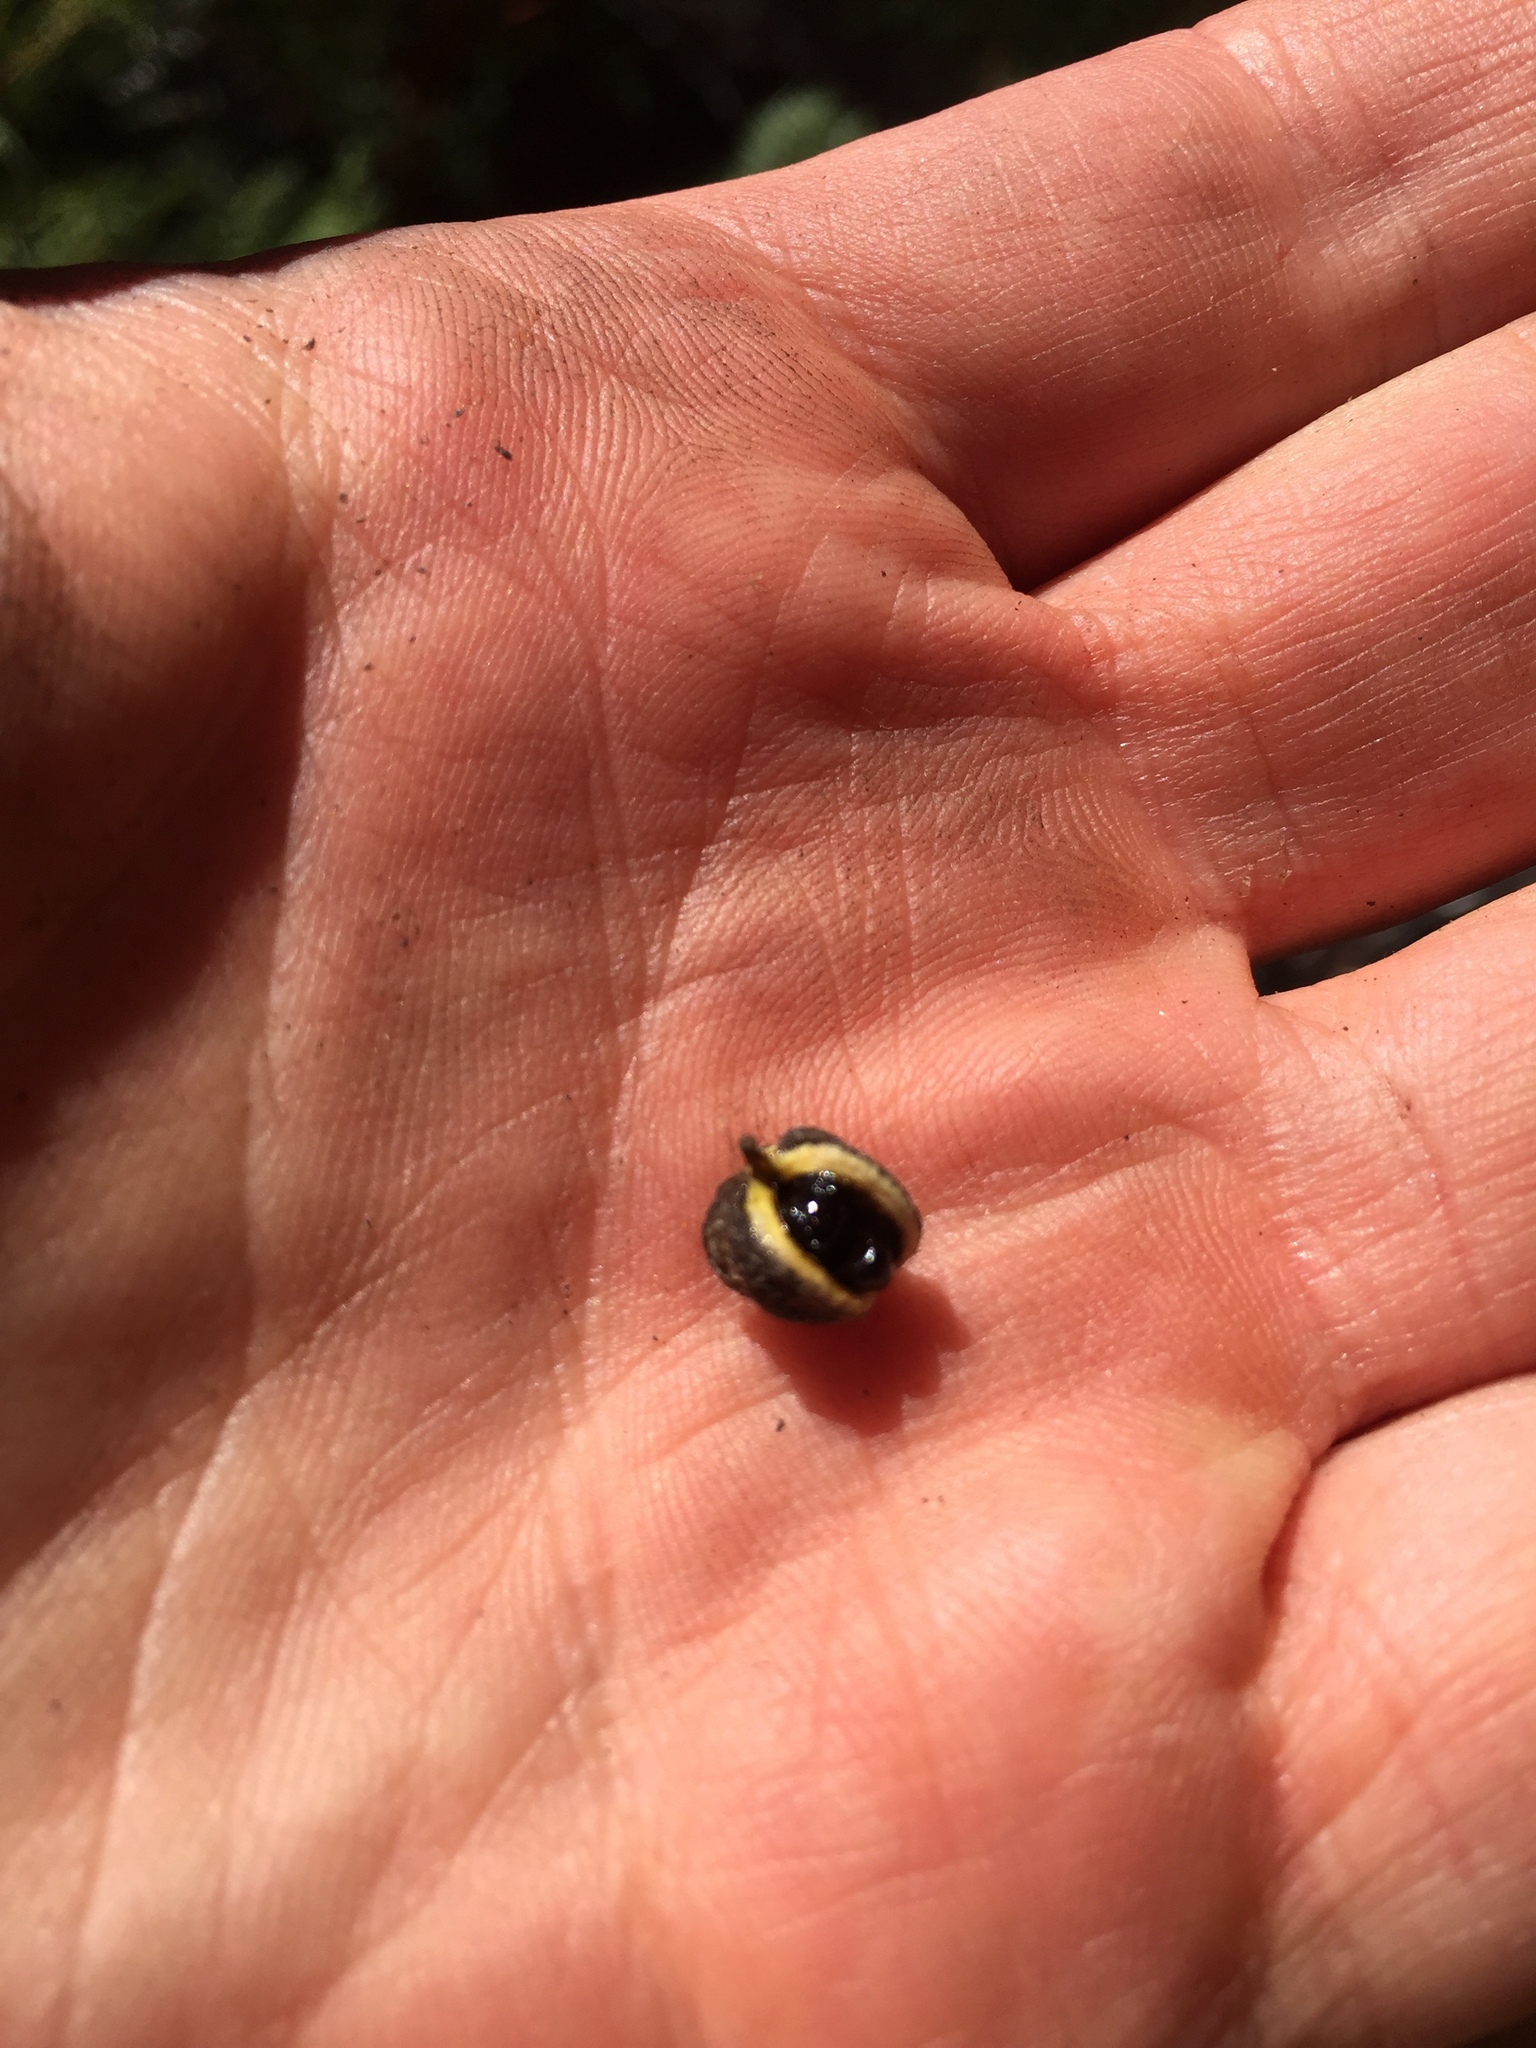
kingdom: Plantae
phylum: Tracheophyta
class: Magnoliopsida
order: Apiales
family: Pittosporaceae
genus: Pittosporum
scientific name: Pittosporum tenuifolium
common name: Kohuhu
